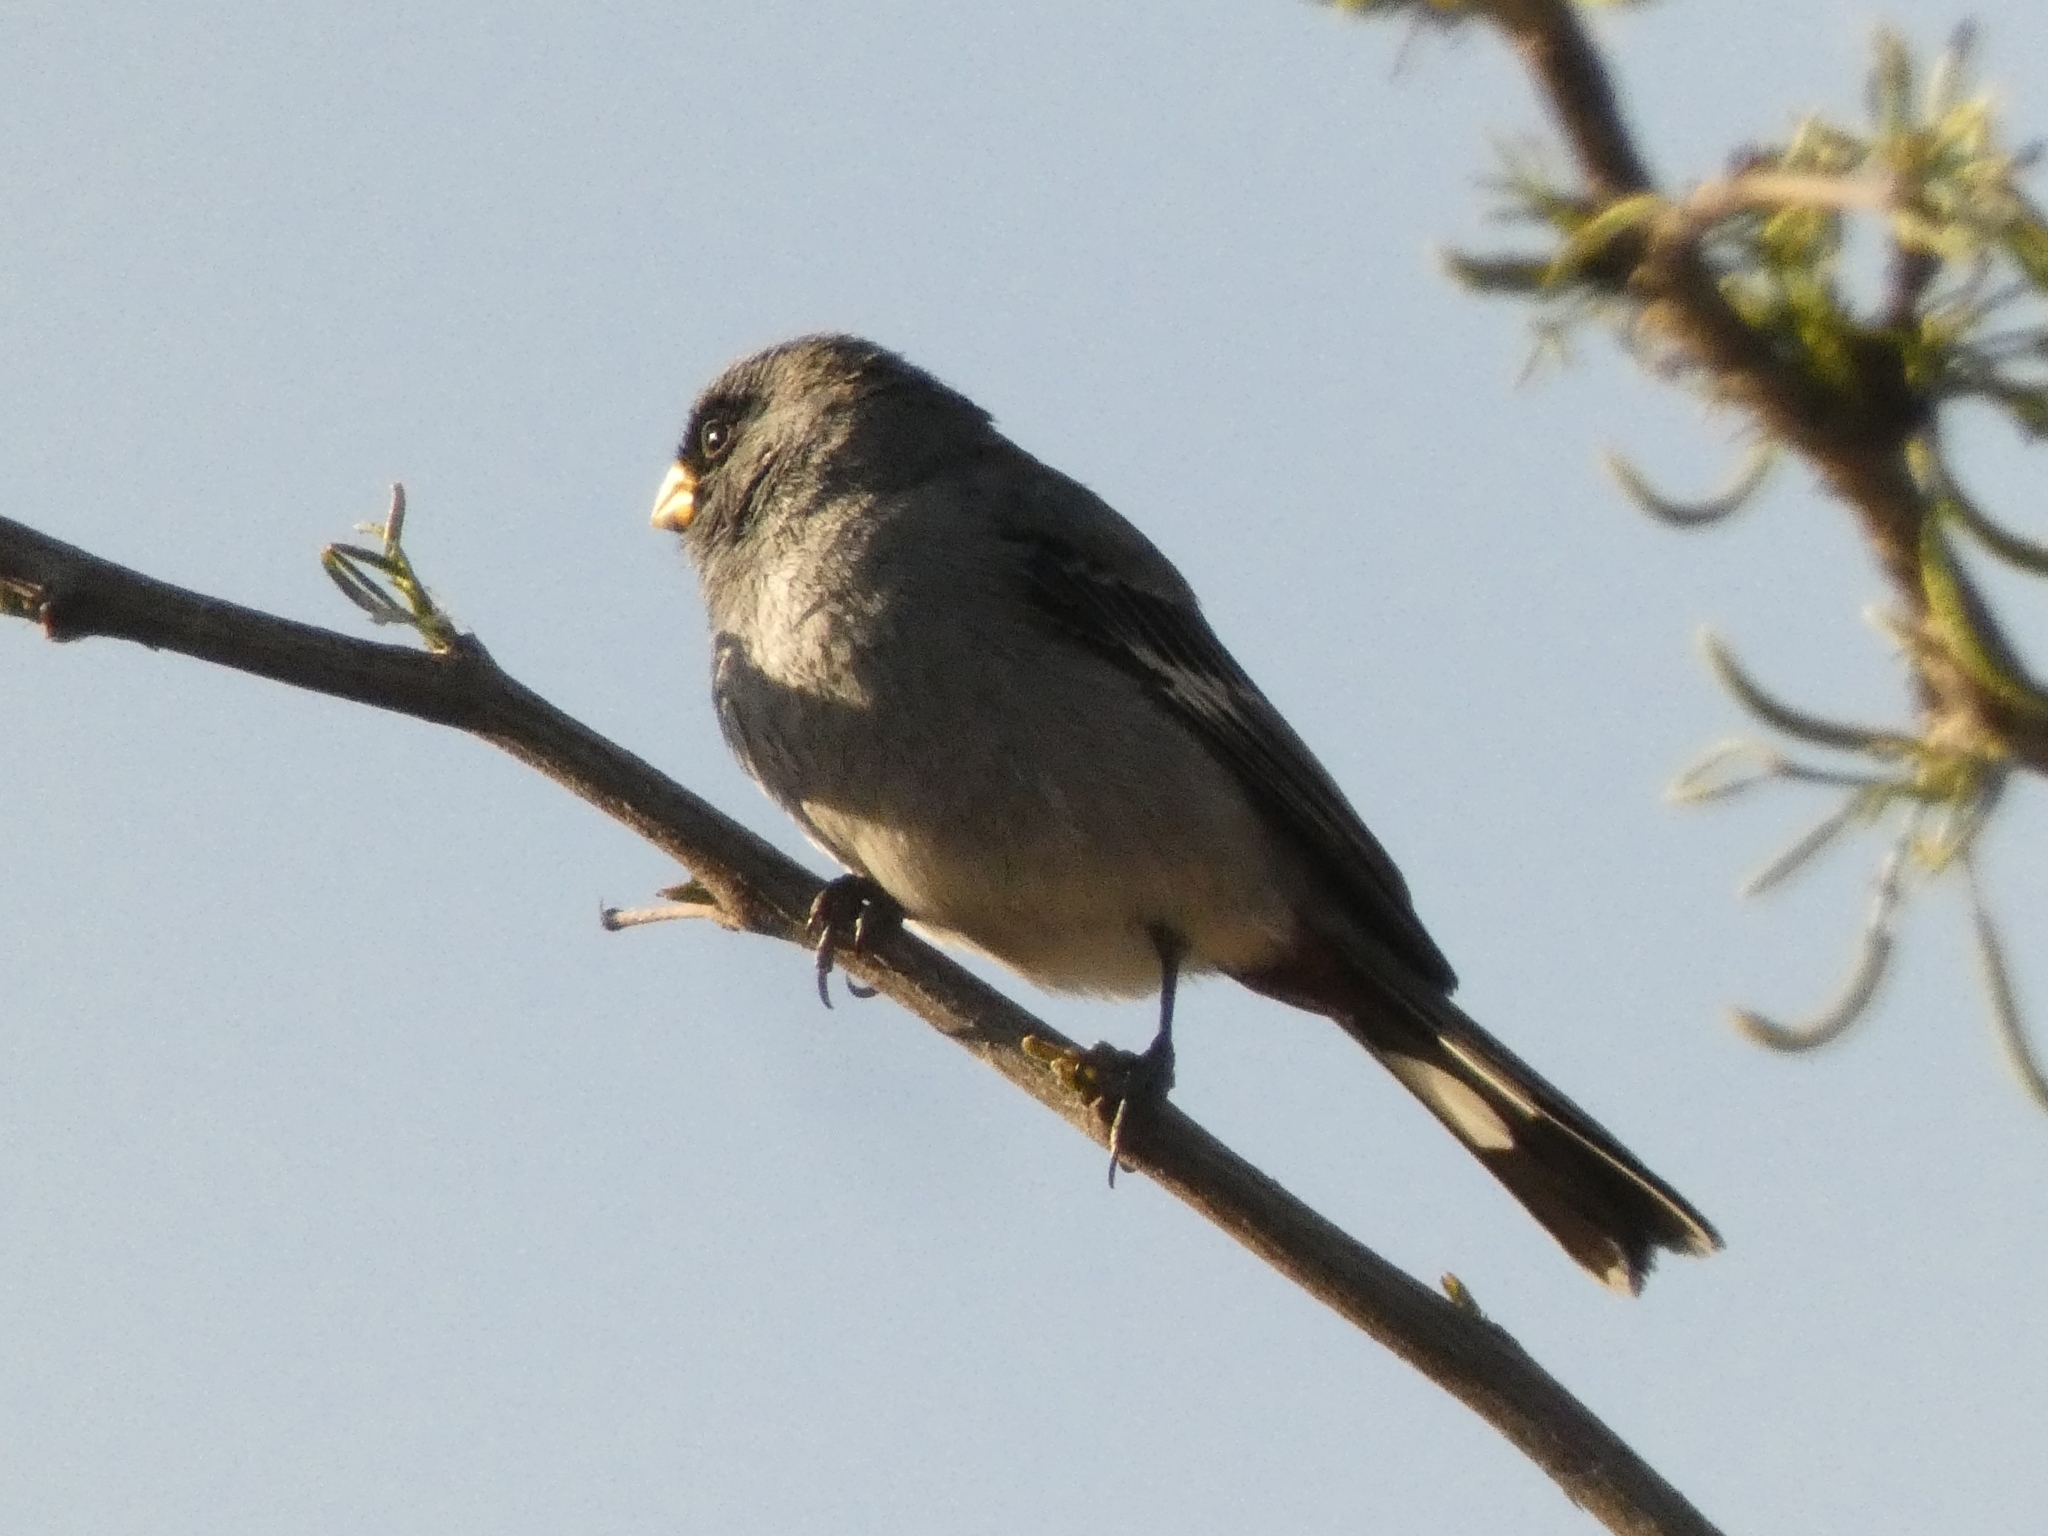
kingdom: Animalia
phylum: Chordata
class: Aves
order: Passeriformes
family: Thraupidae
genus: Catamenia
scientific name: Catamenia analis
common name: Band-tailed seedeater
